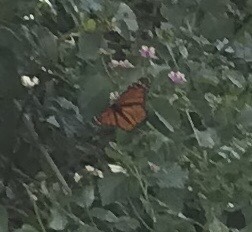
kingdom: Animalia
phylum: Arthropoda
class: Insecta
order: Lepidoptera
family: Nymphalidae
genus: Danaus
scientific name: Danaus plexippus
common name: Monarch
